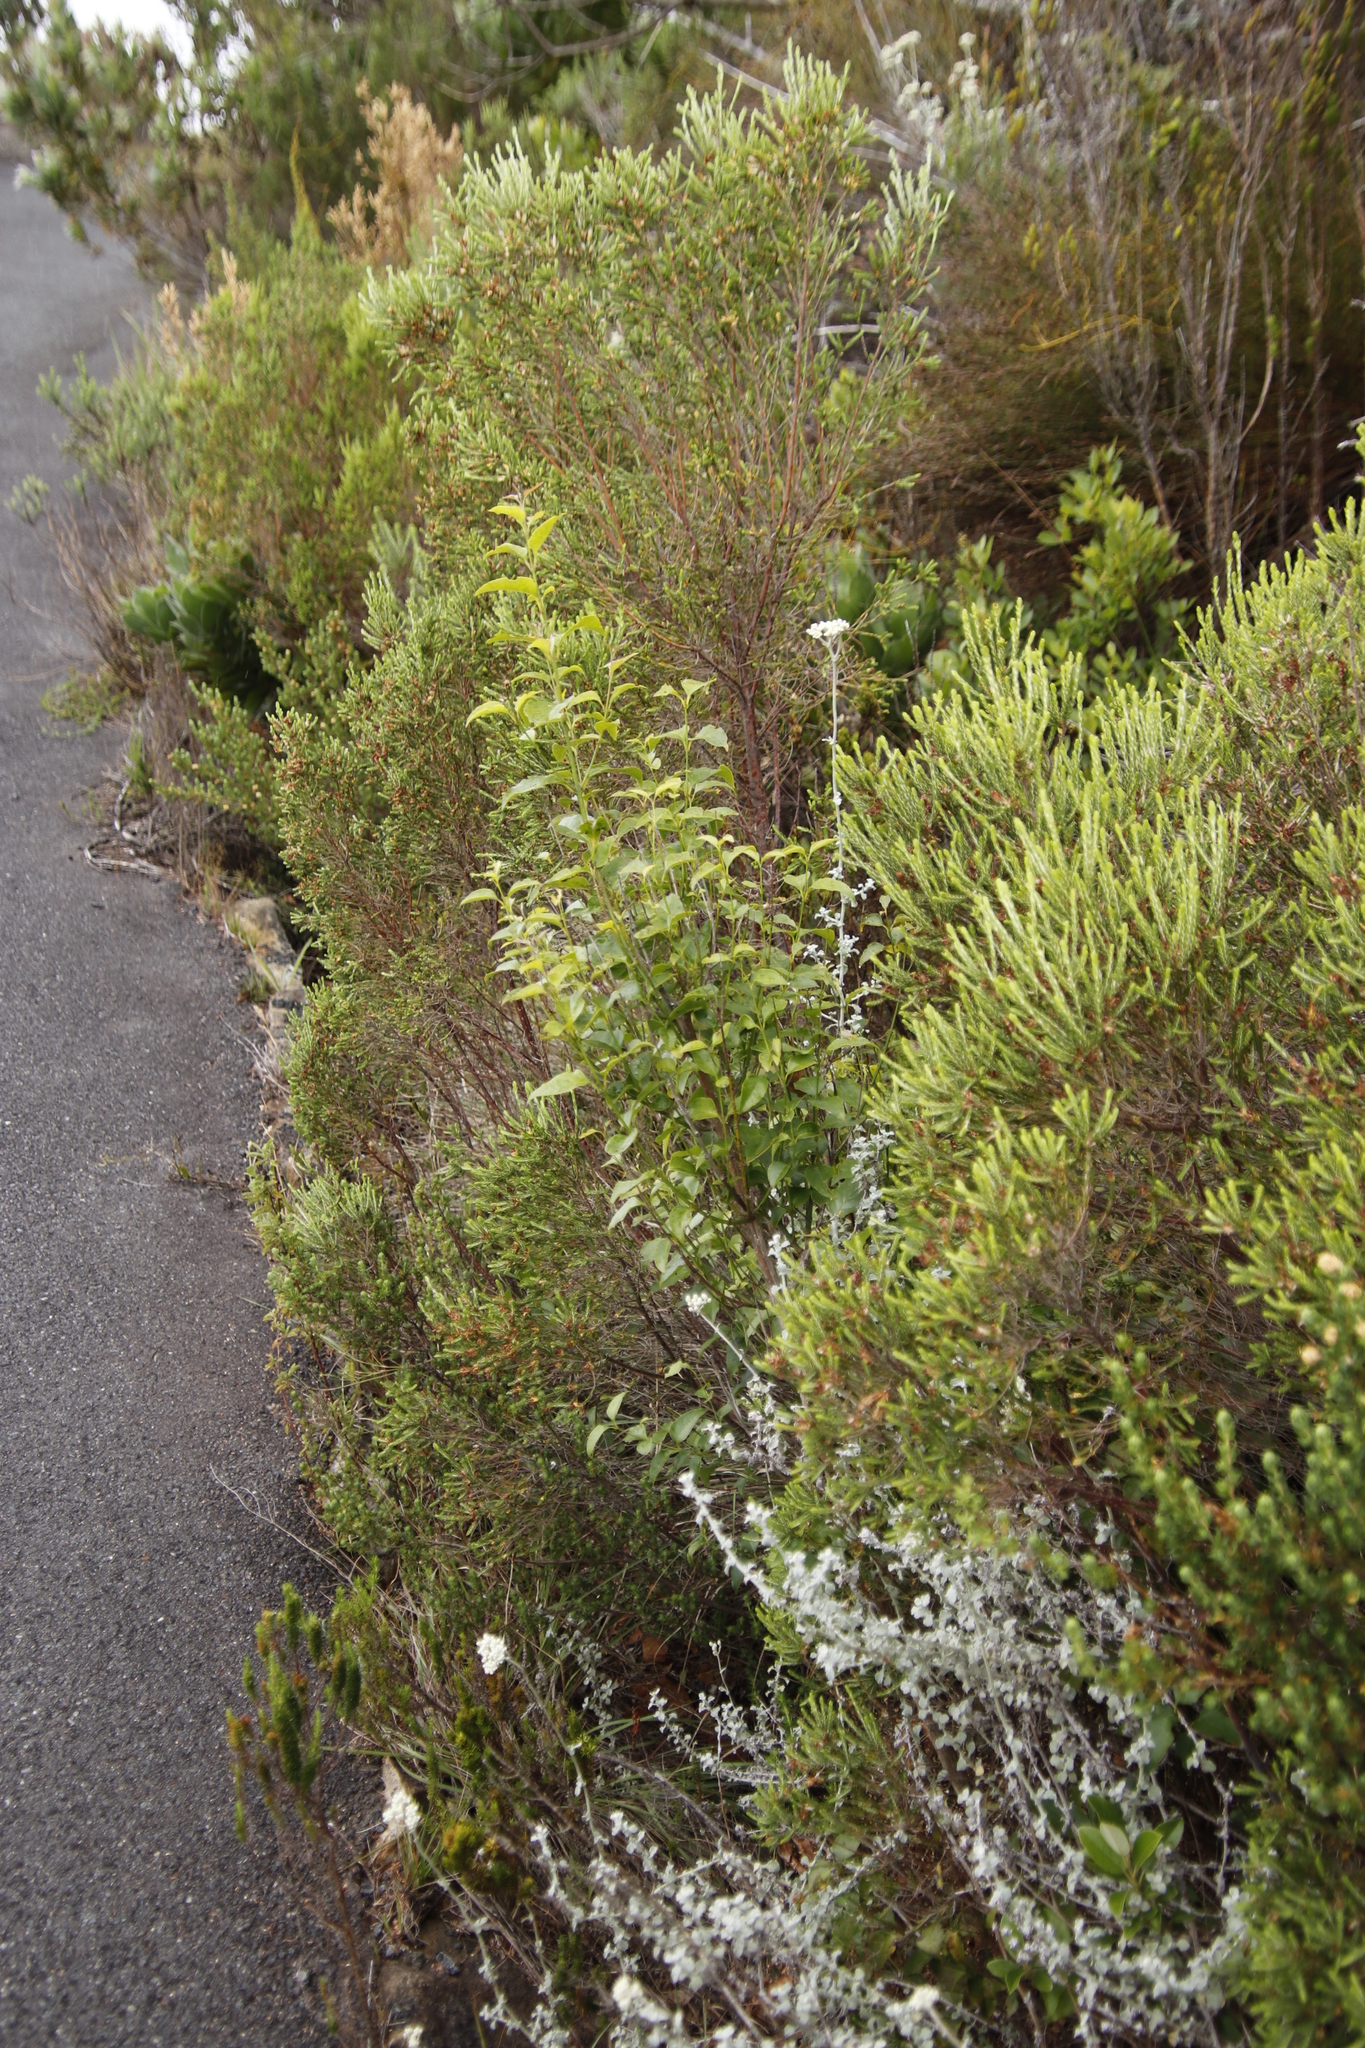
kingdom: Plantae
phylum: Tracheophyta
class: Magnoliopsida
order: Lamiales
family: Stilbaceae
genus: Halleria
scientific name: Halleria lucida
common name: Tree fuschia
